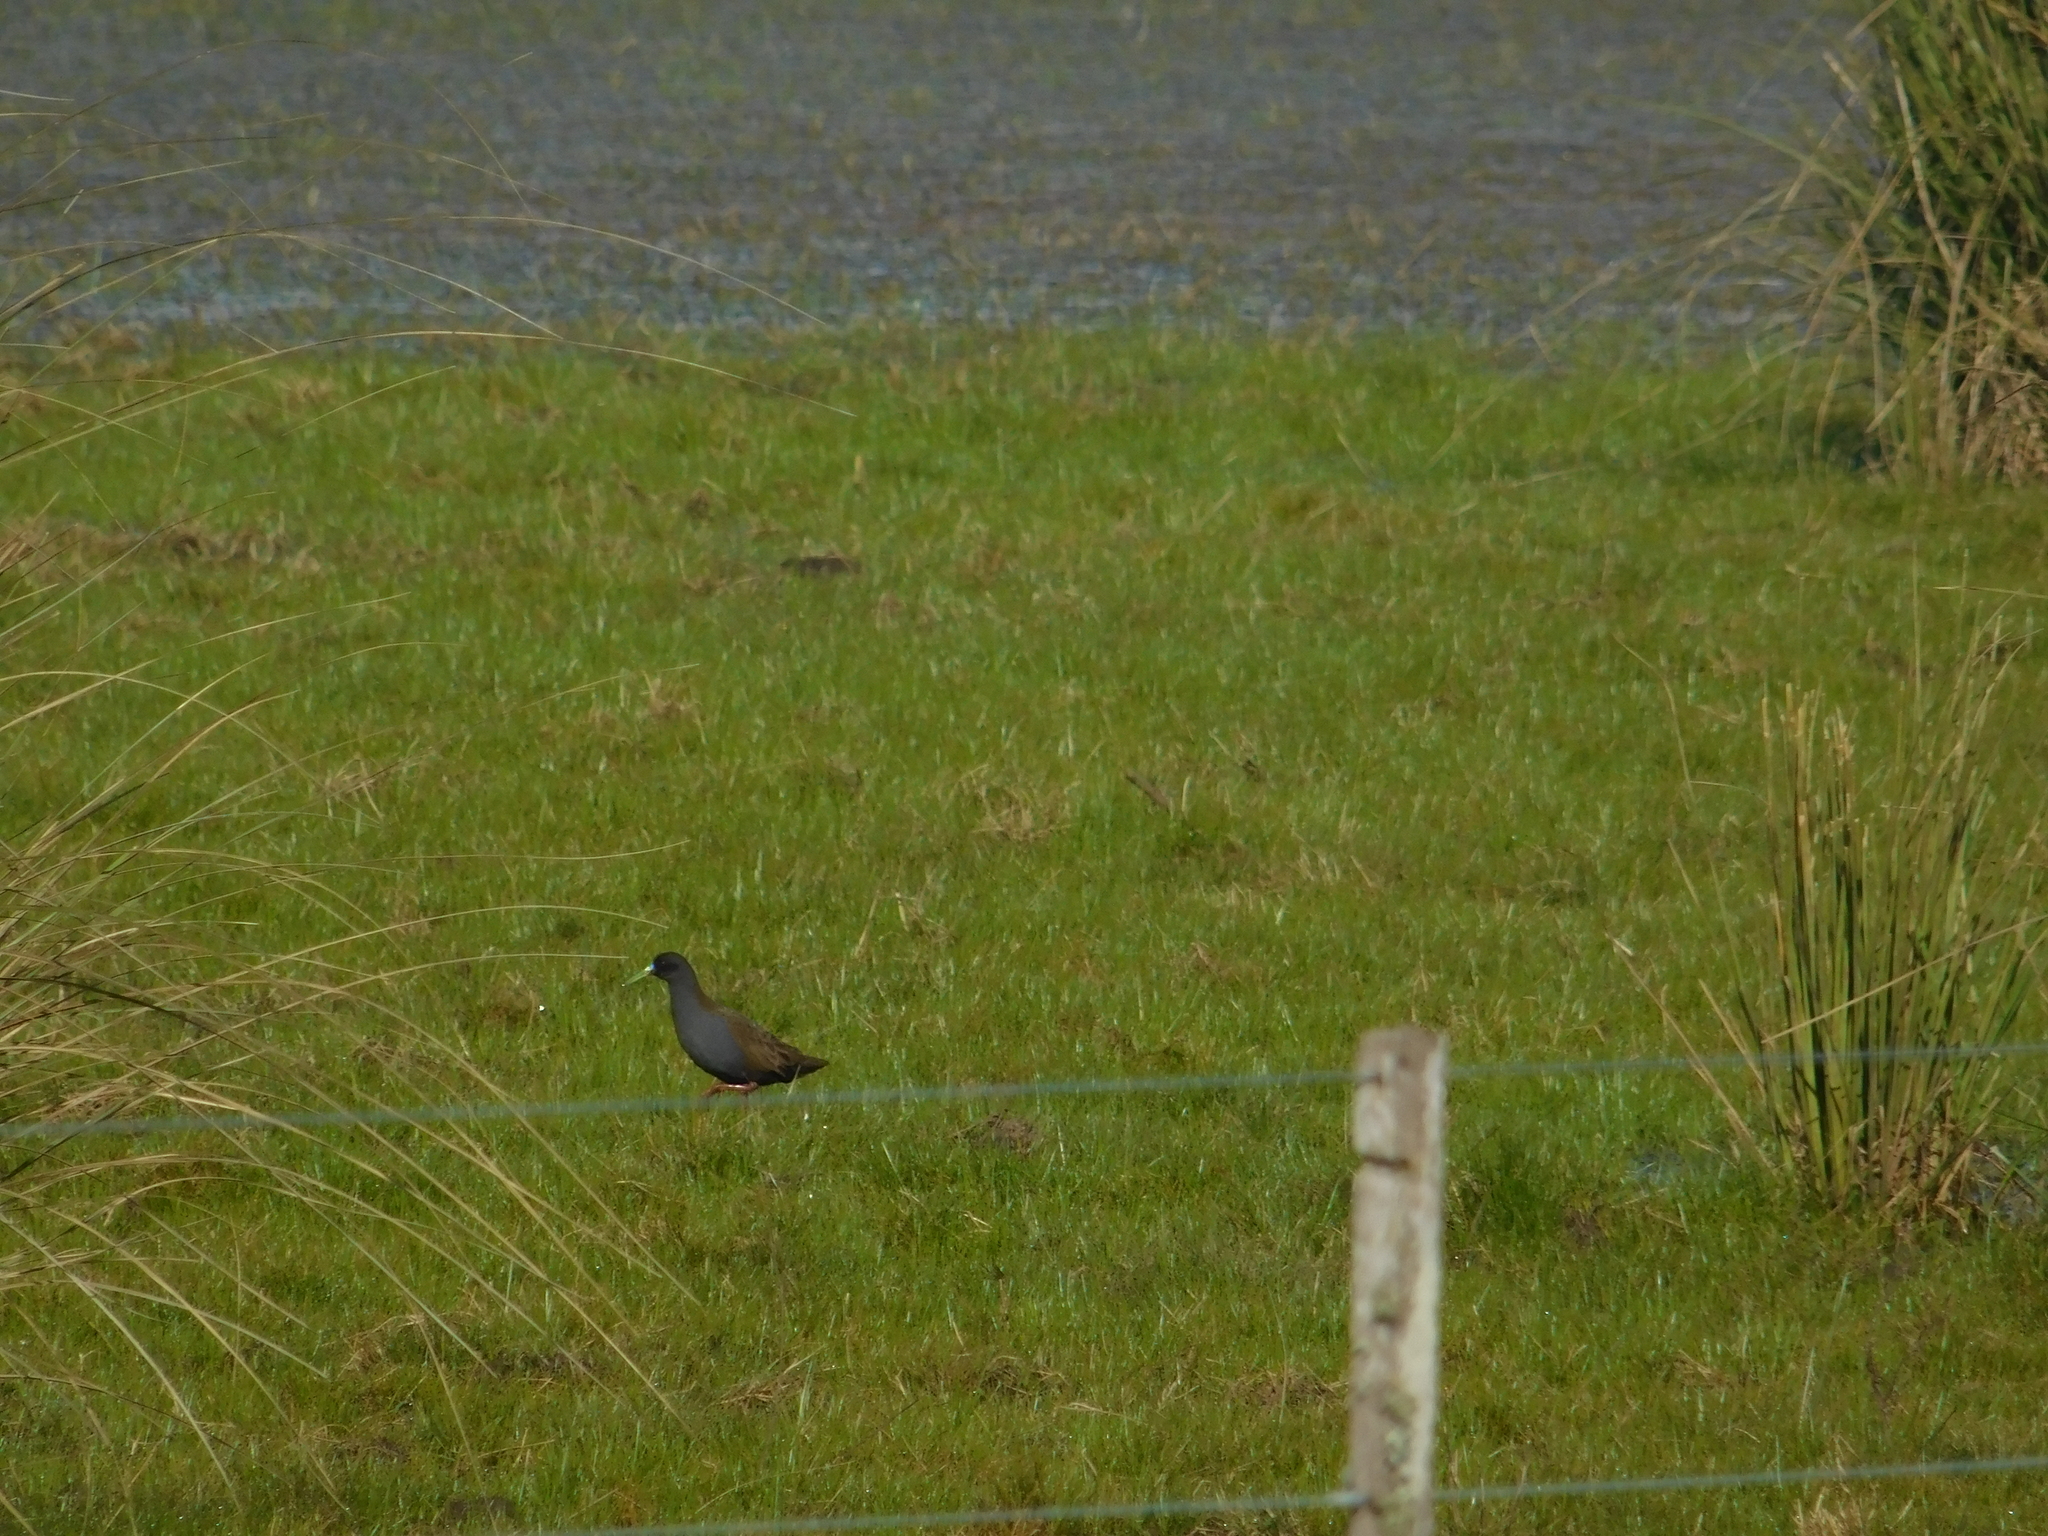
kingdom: Animalia
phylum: Chordata
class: Aves
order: Gruiformes
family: Rallidae
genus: Pardirallus
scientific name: Pardirallus sanguinolentus
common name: Plumbeous rail
